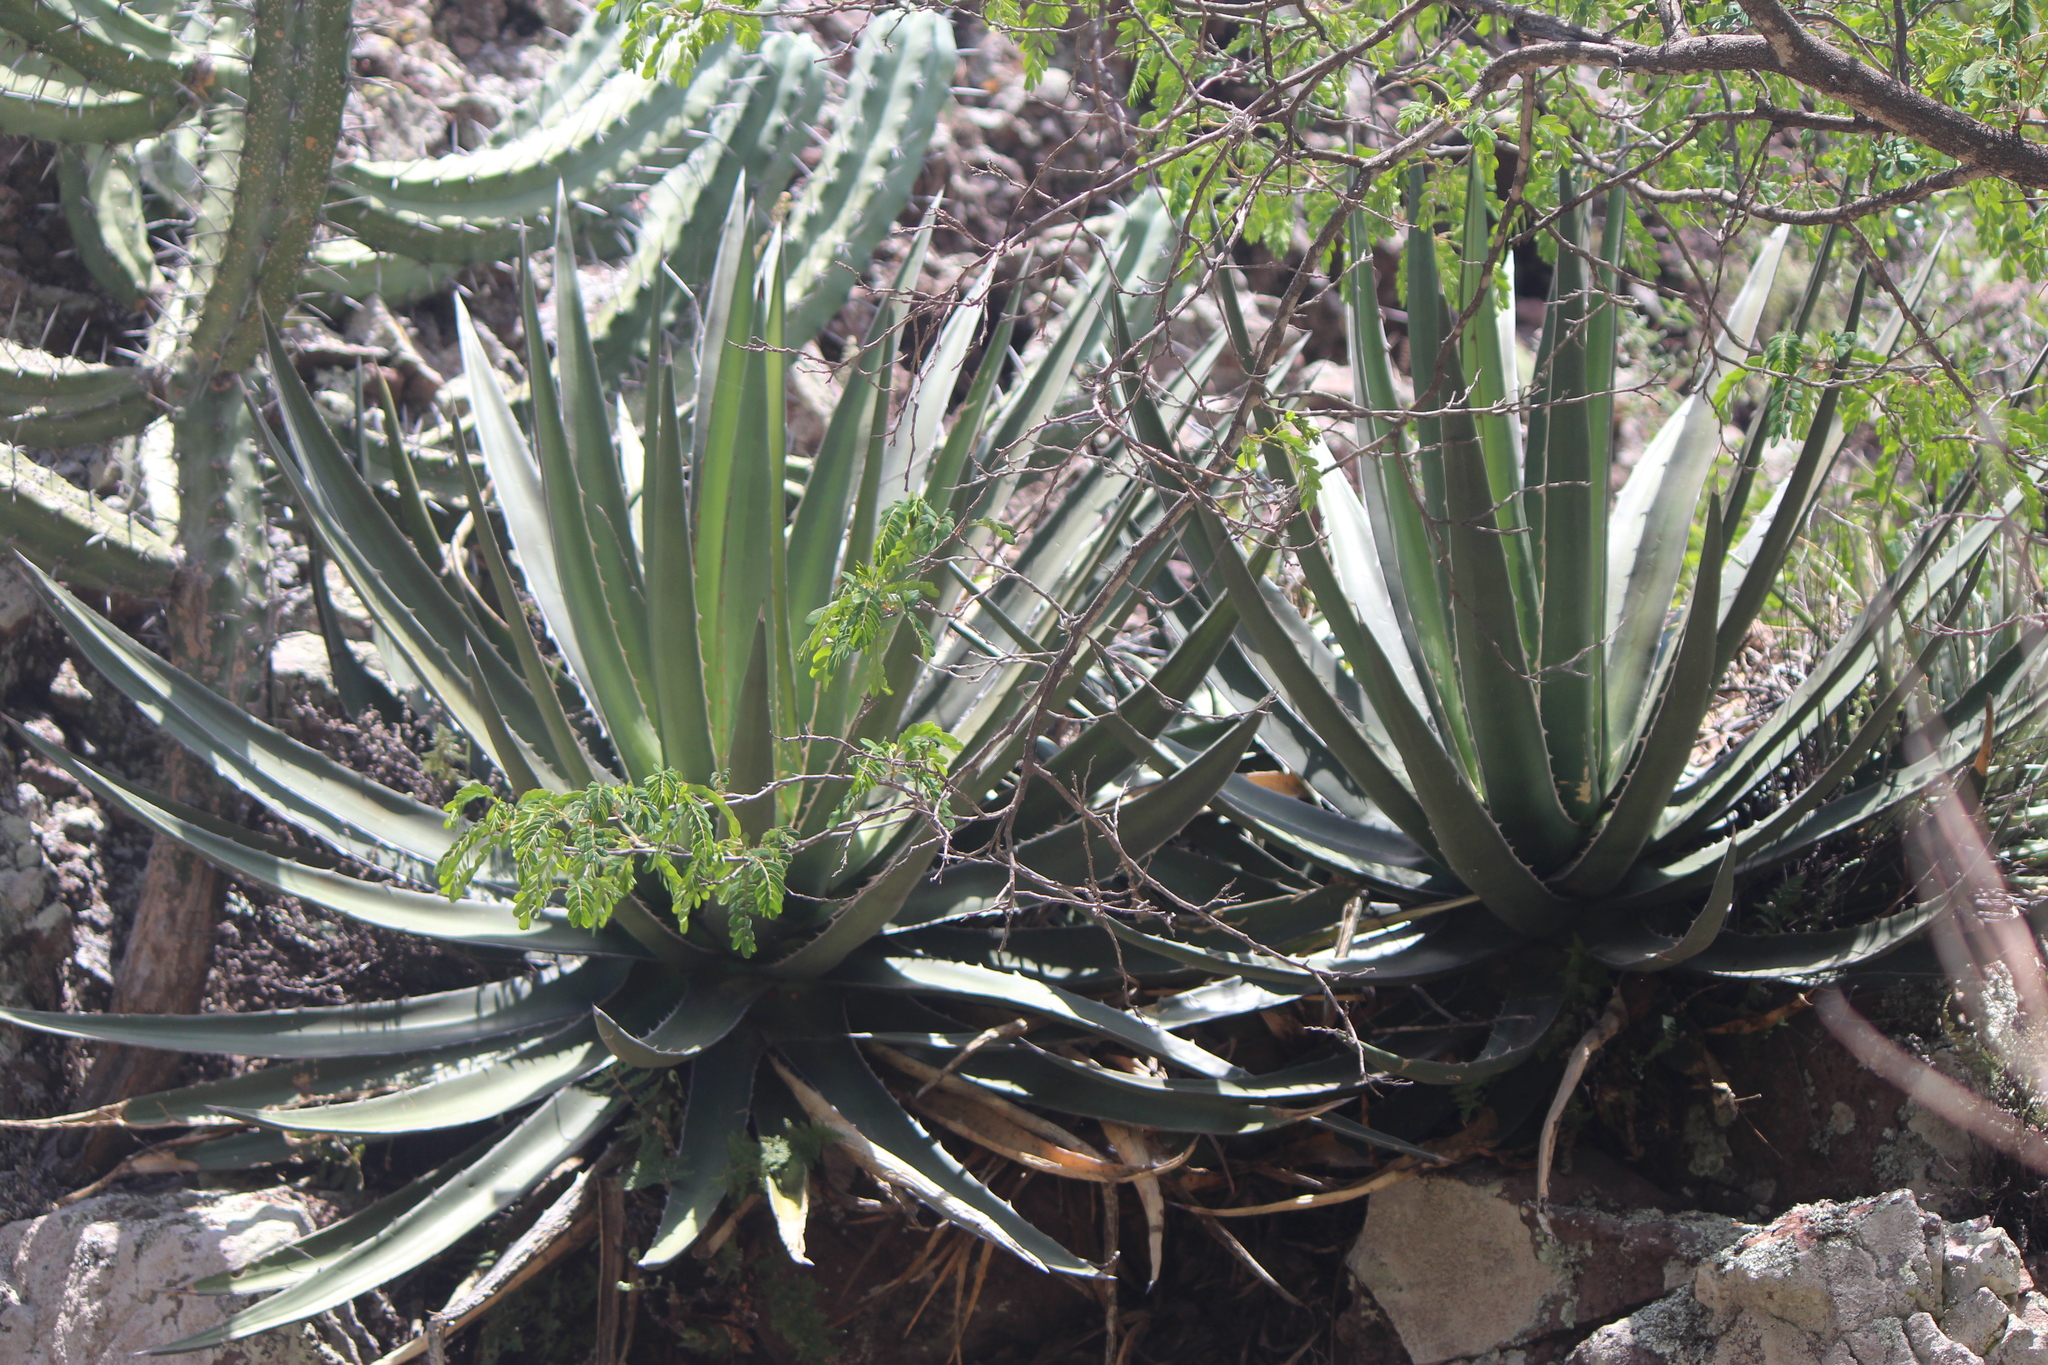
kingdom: Plantae
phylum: Tracheophyta
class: Liliopsida
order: Asparagales
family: Asparagaceae
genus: Agave
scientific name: Agave albomarginata
